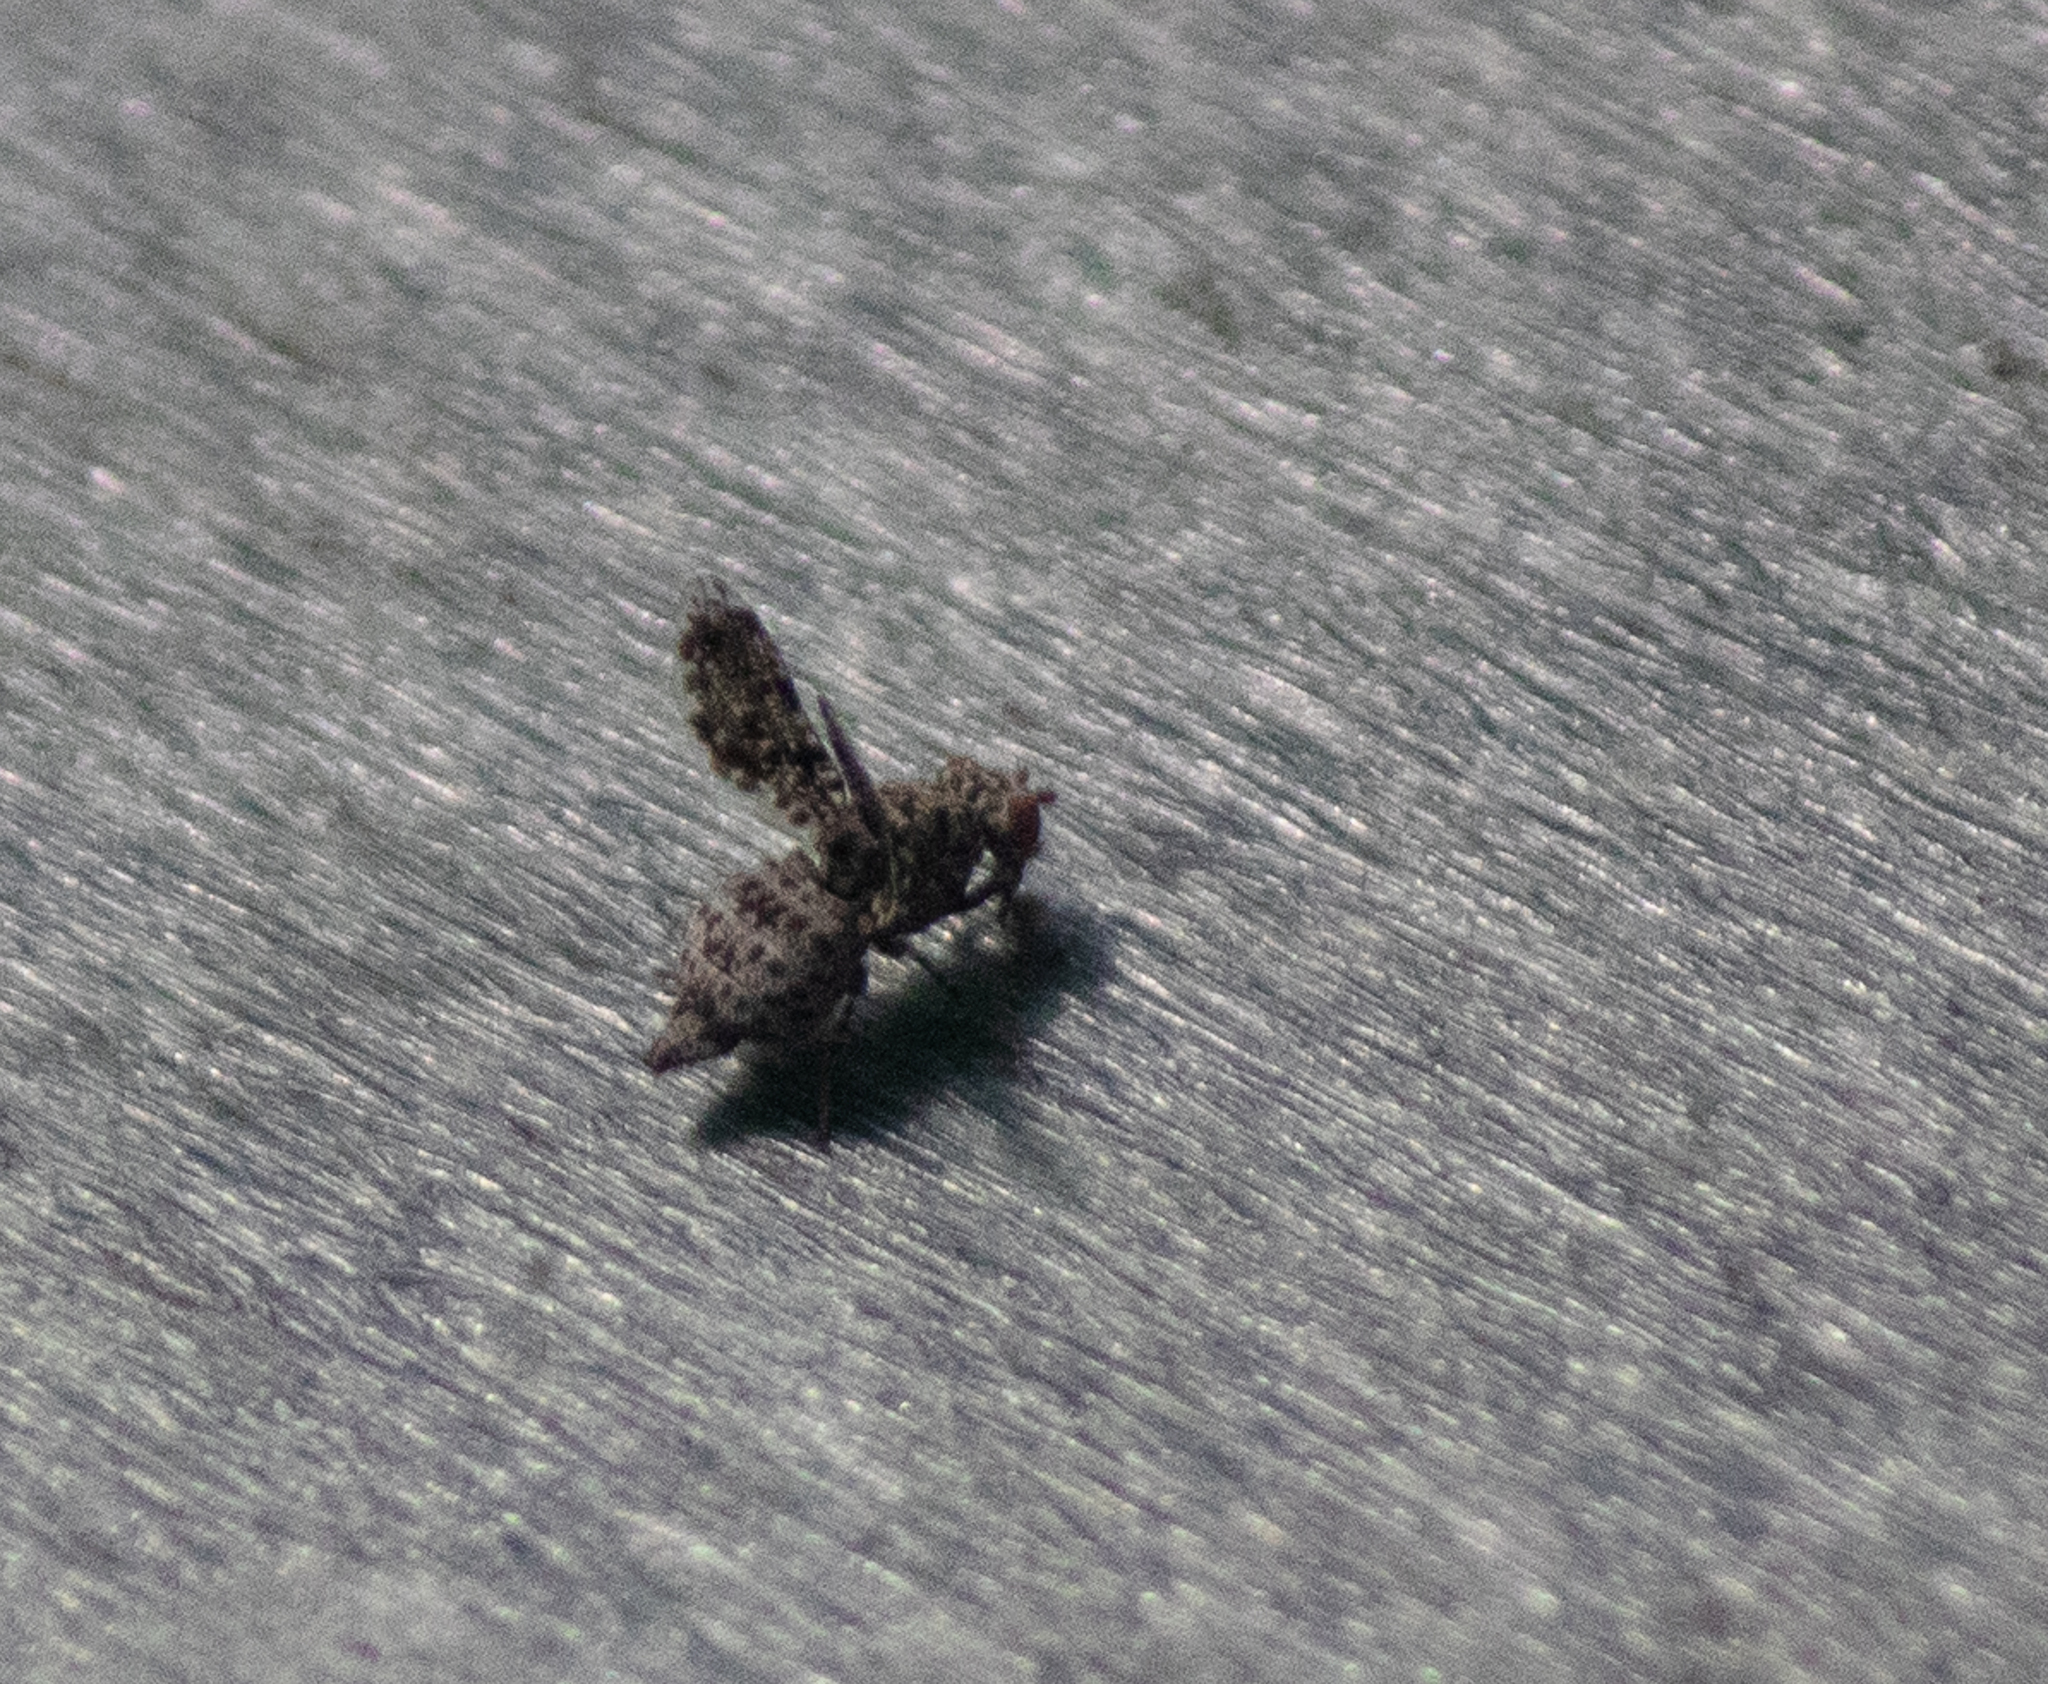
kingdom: Animalia
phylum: Arthropoda
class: Insecta
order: Diptera
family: Ulidiidae
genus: Callopistromyia
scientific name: Callopistromyia annulipes
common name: Peacock fly
